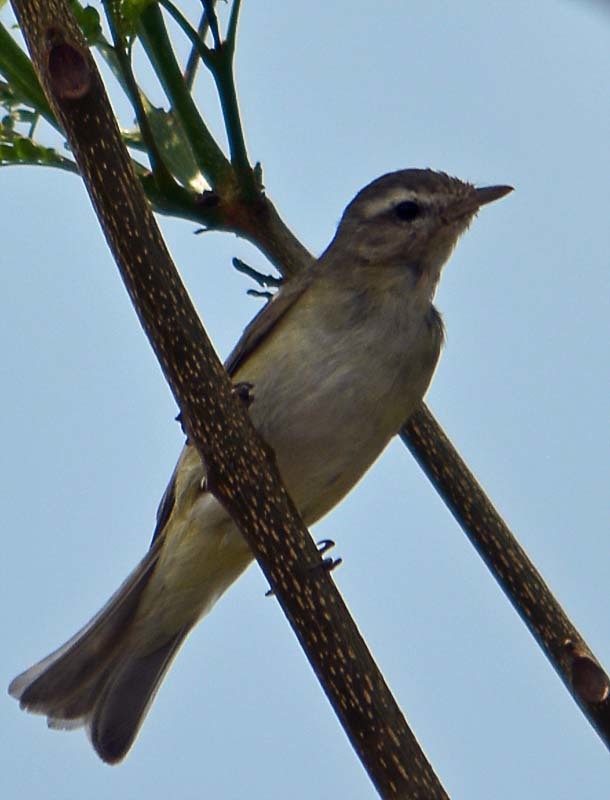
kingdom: Animalia
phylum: Chordata
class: Aves
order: Passeriformes
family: Vireonidae
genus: Vireo
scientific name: Vireo gilvus
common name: Warbling vireo
